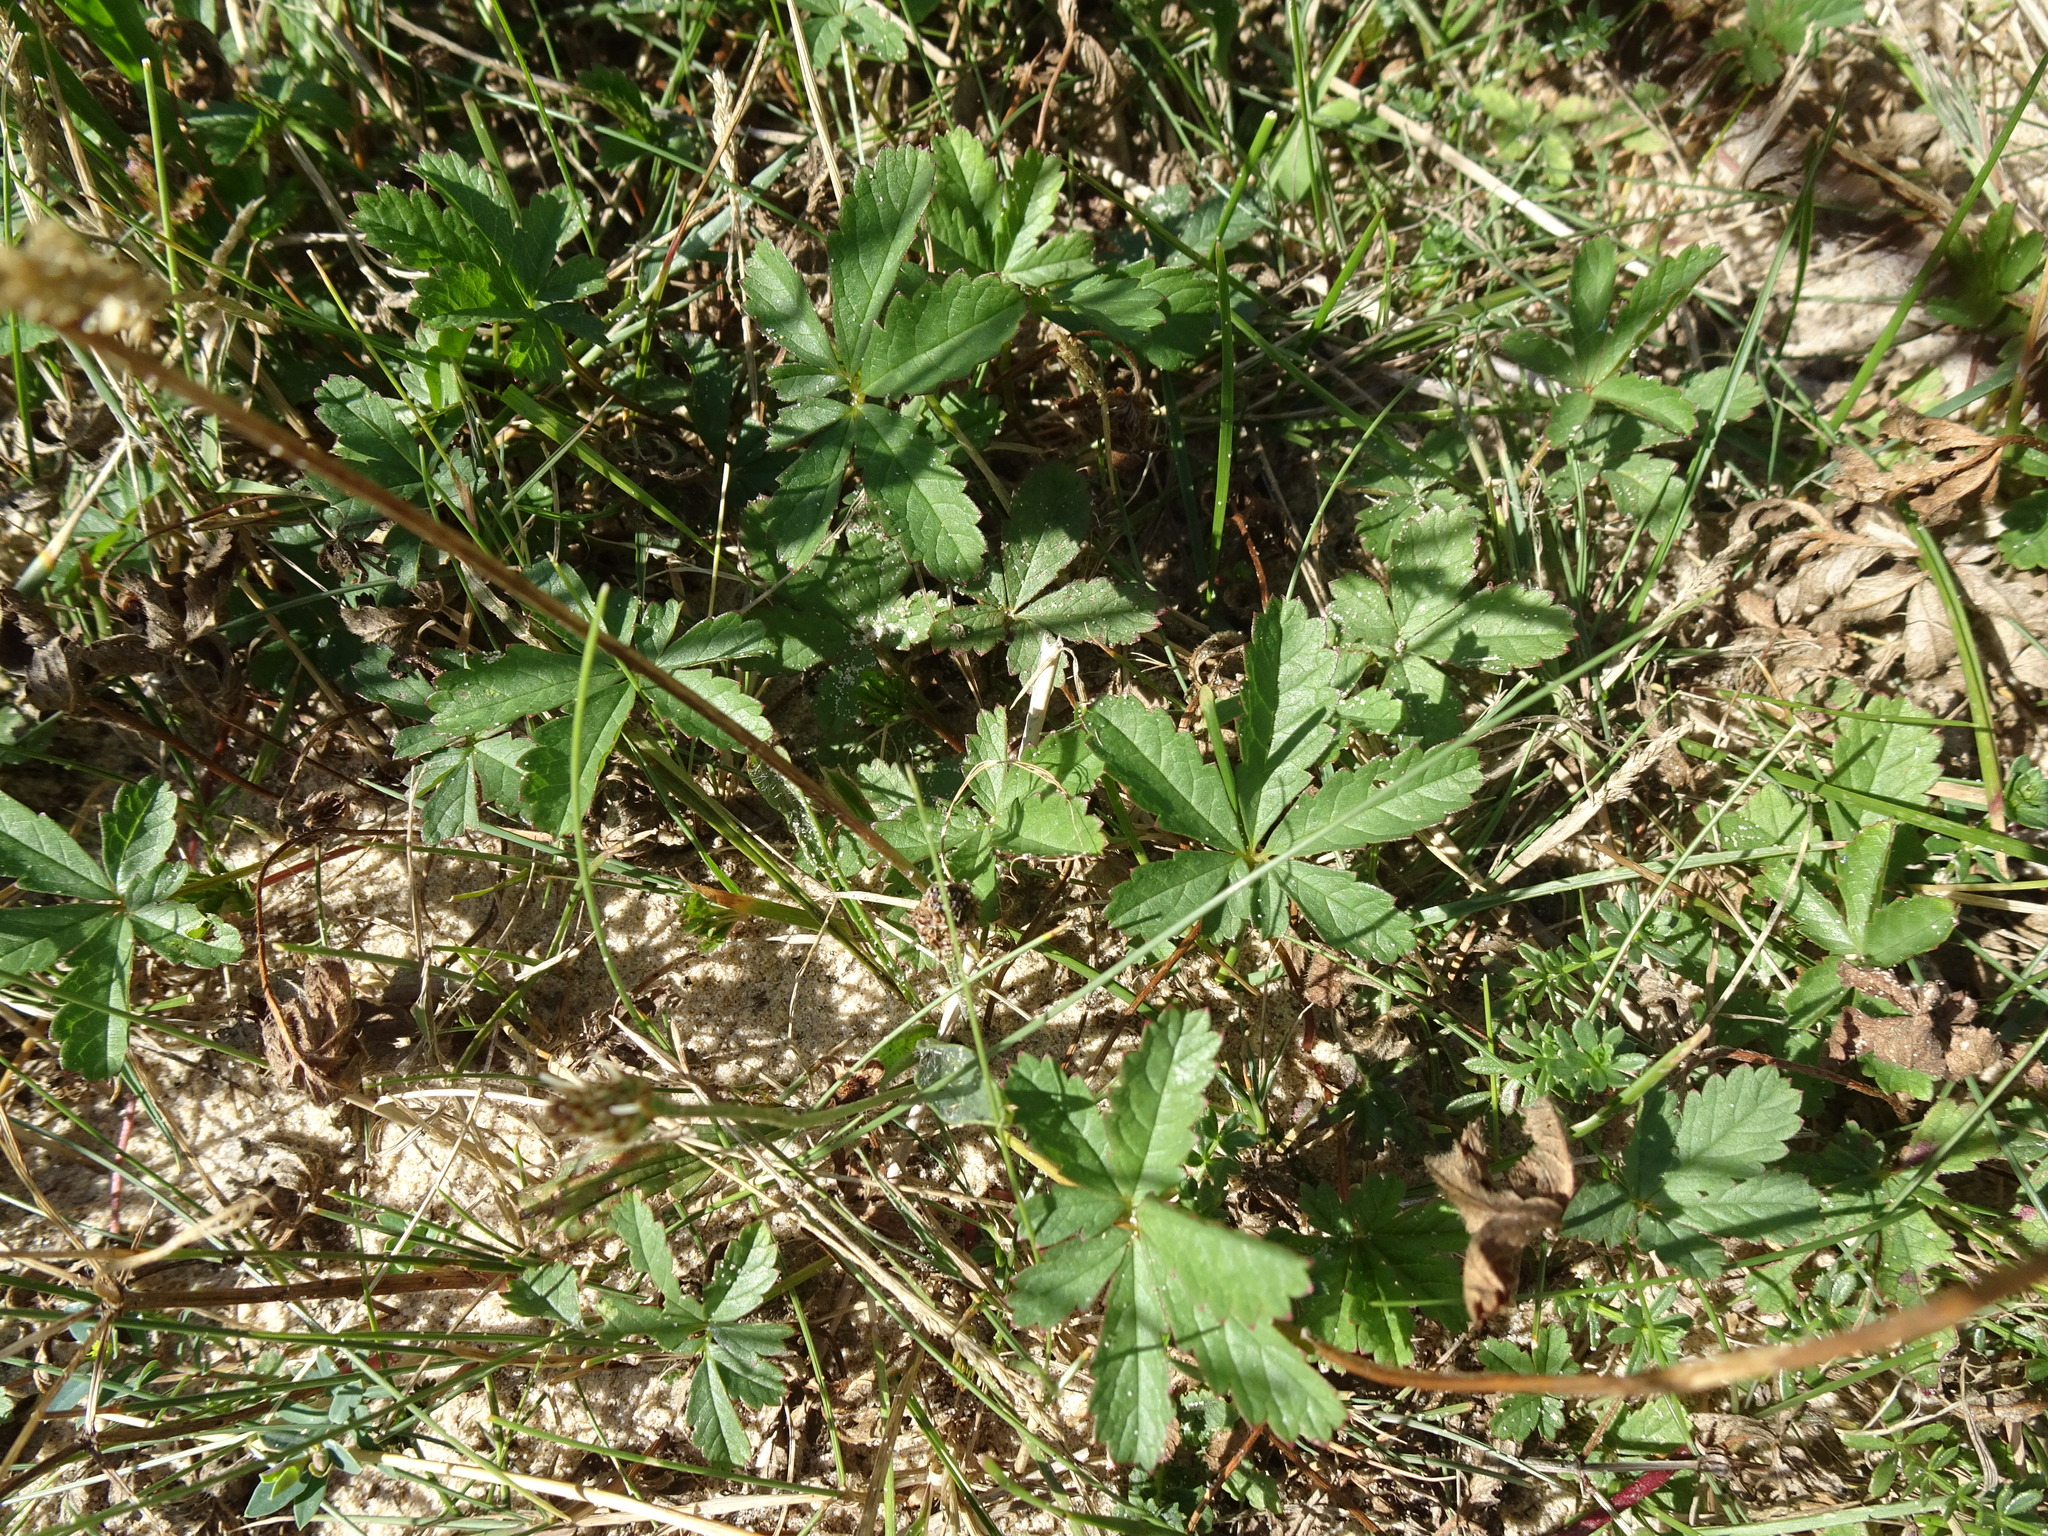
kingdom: Plantae
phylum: Tracheophyta
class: Magnoliopsida
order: Rosales
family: Rosaceae
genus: Potentilla
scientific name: Potentilla reptans
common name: Creeping cinquefoil
